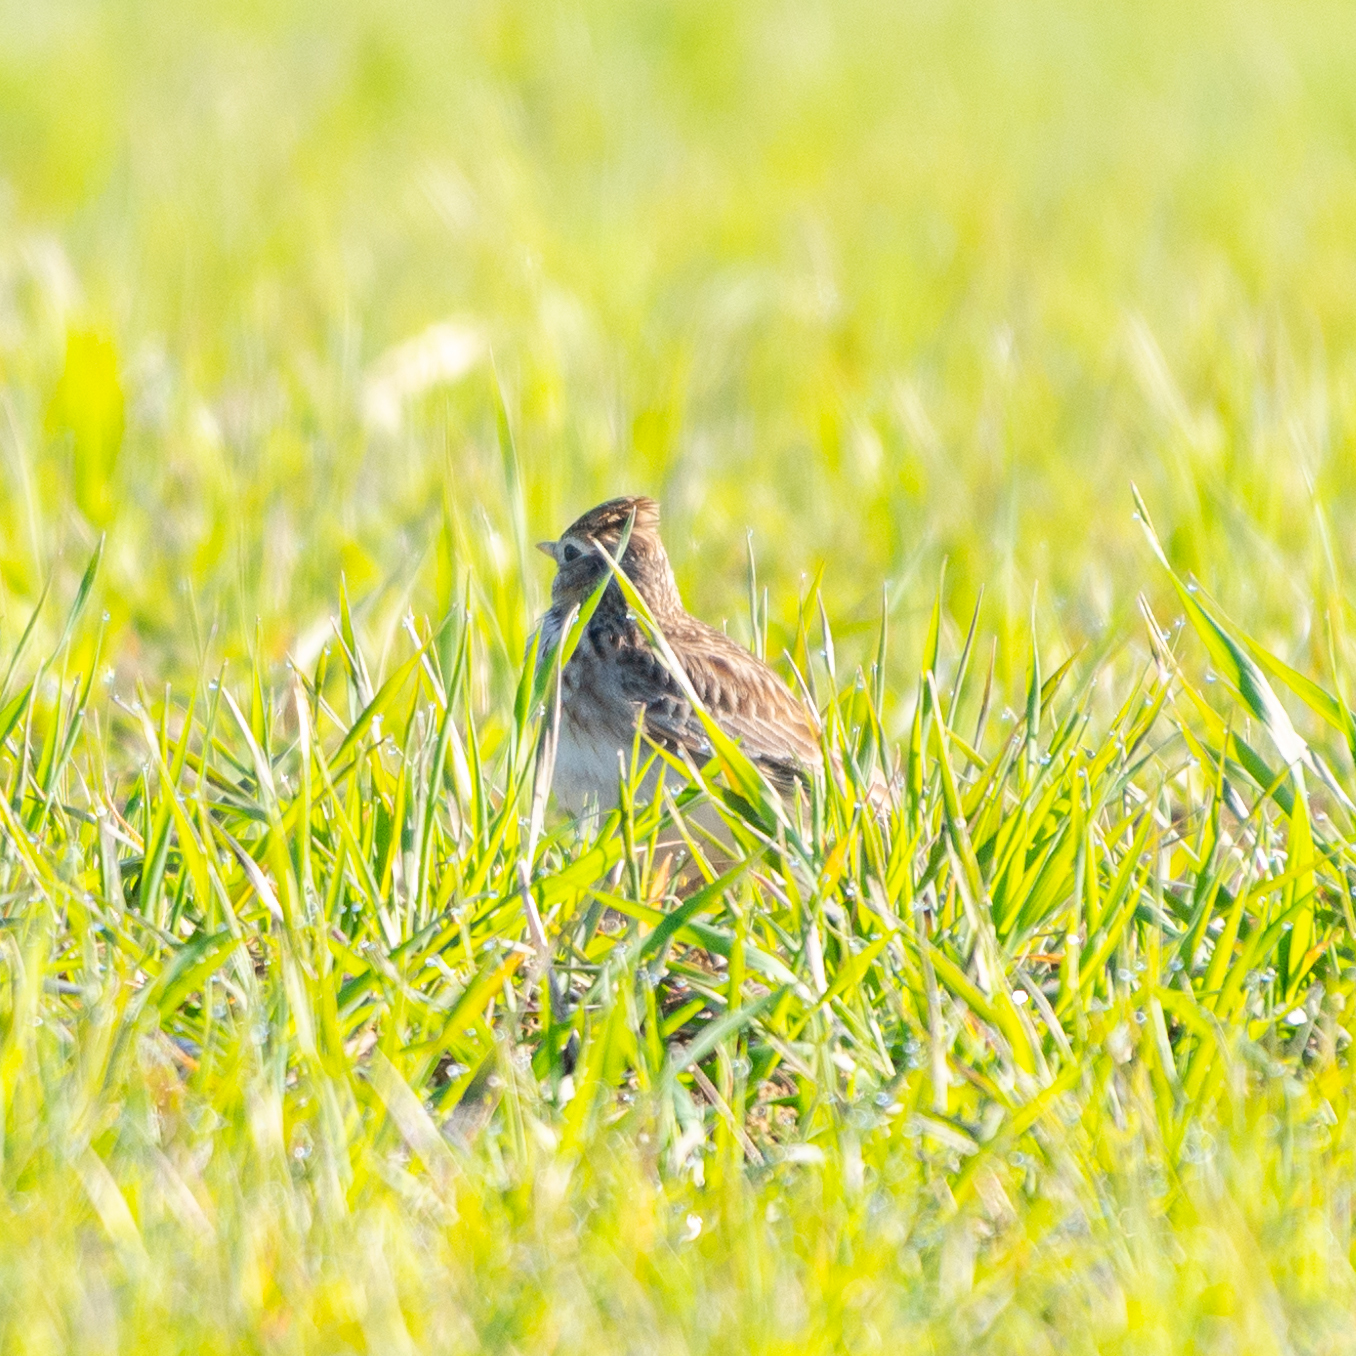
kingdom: Animalia
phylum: Chordata
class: Aves
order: Passeriformes
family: Alaudidae
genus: Alauda
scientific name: Alauda arvensis
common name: Eurasian skylark
